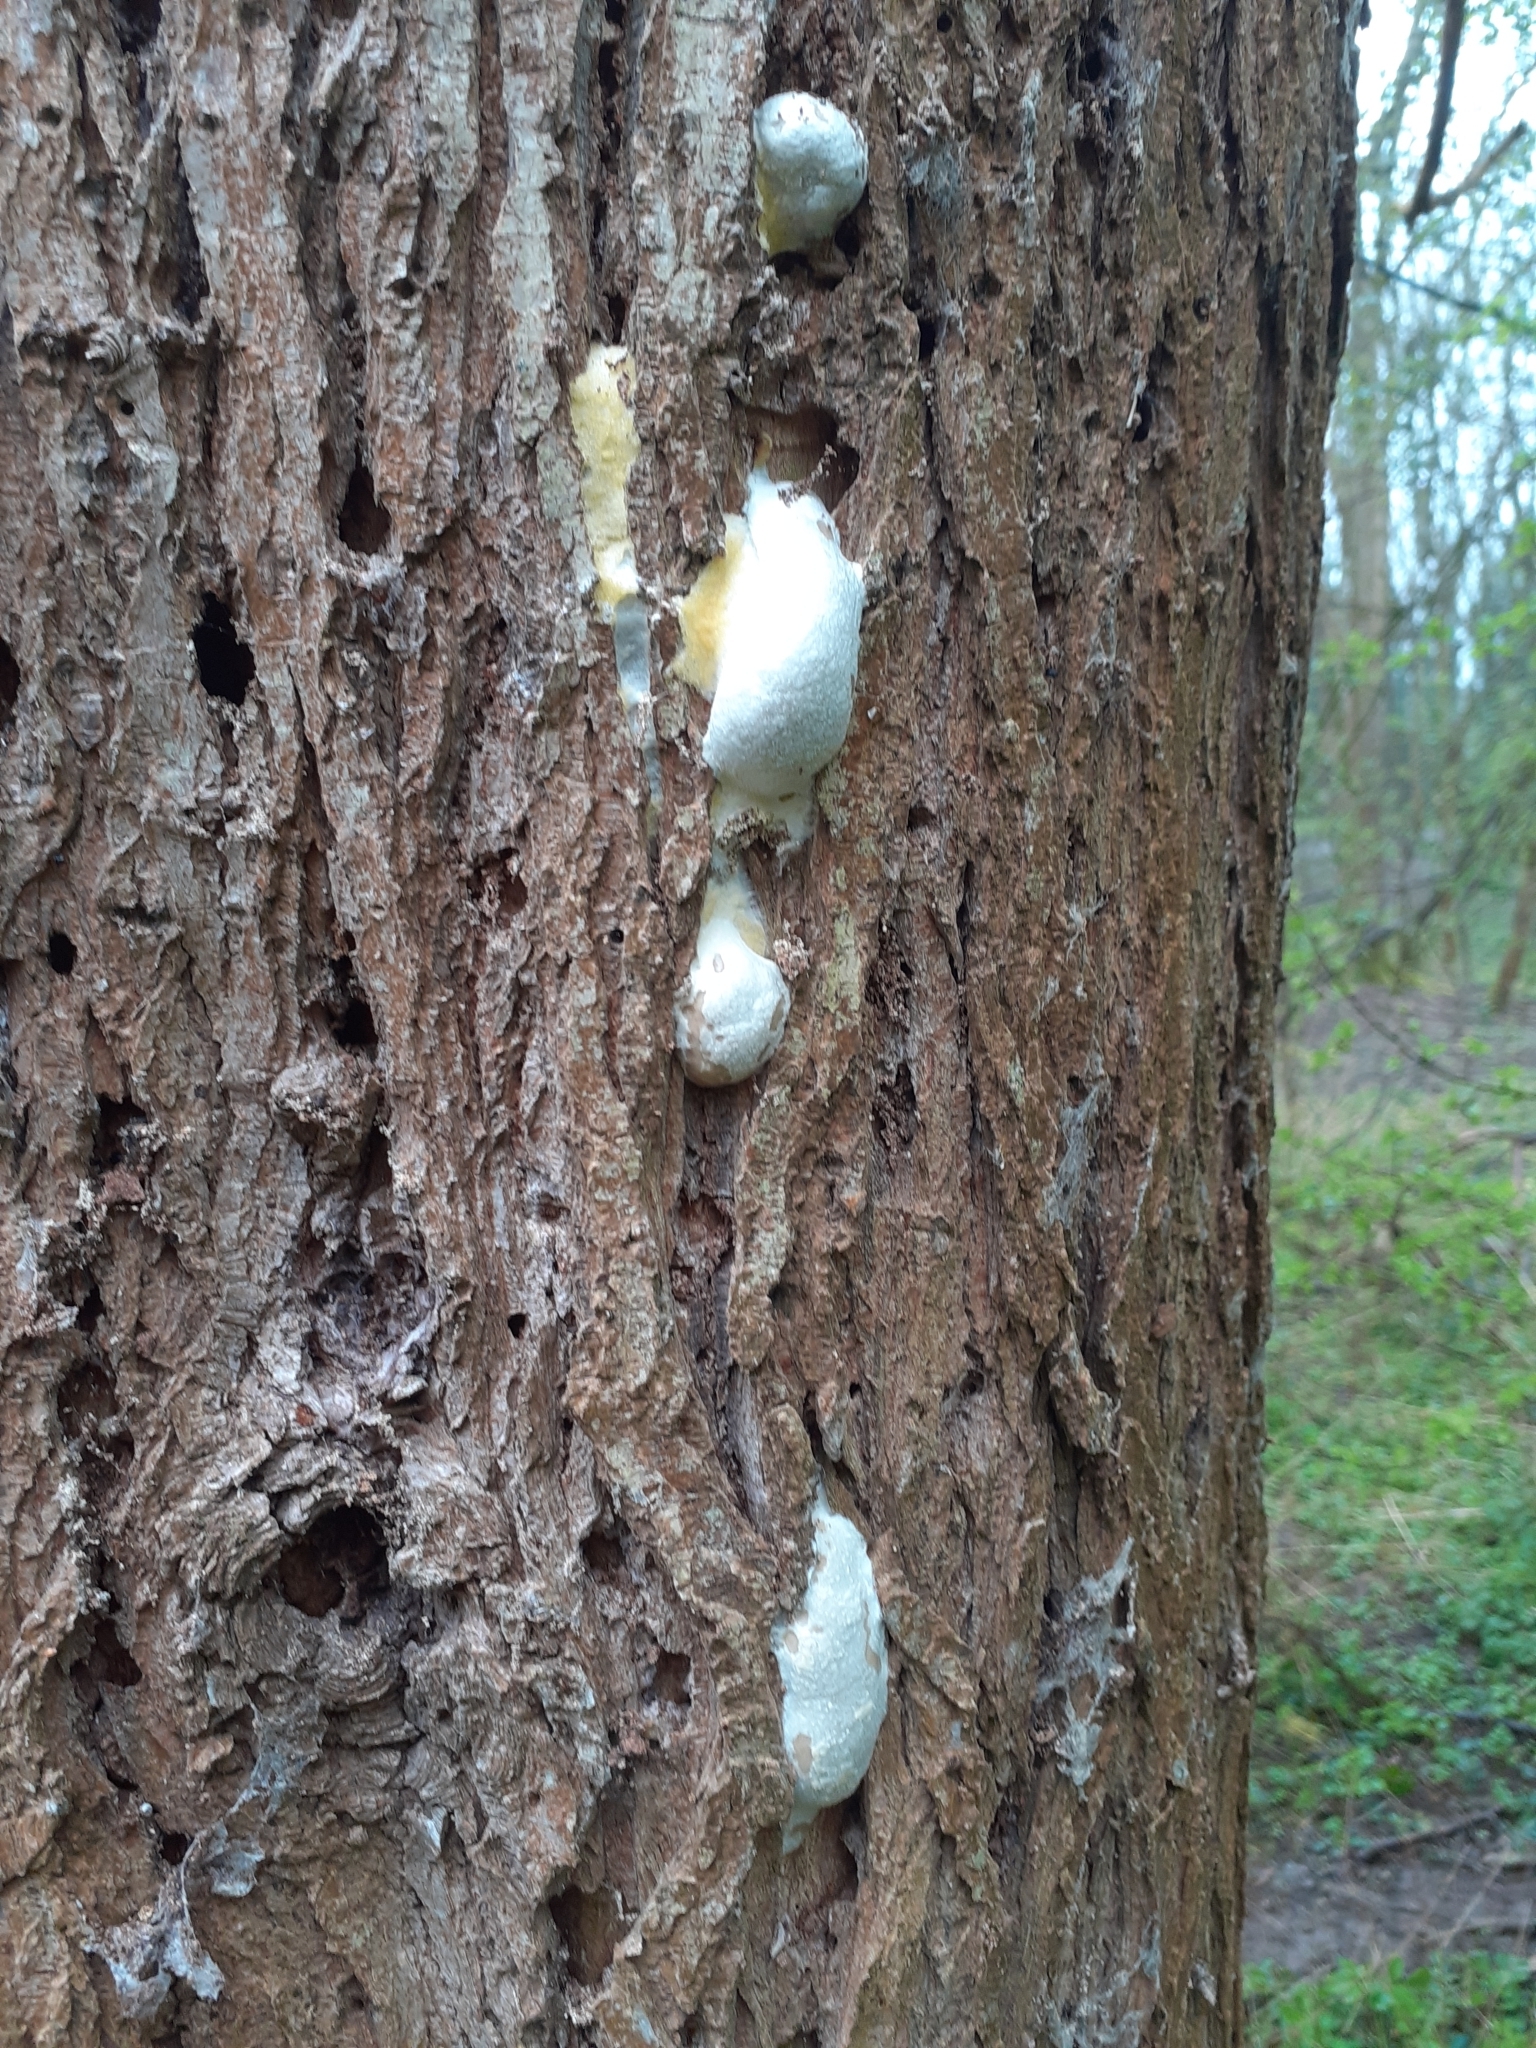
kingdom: Protozoa
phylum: Mycetozoa
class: Myxomycetes
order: Cribrariales
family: Tubiferaceae
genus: Reticularia
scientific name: Reticularia lycoperdon
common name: False puffball
